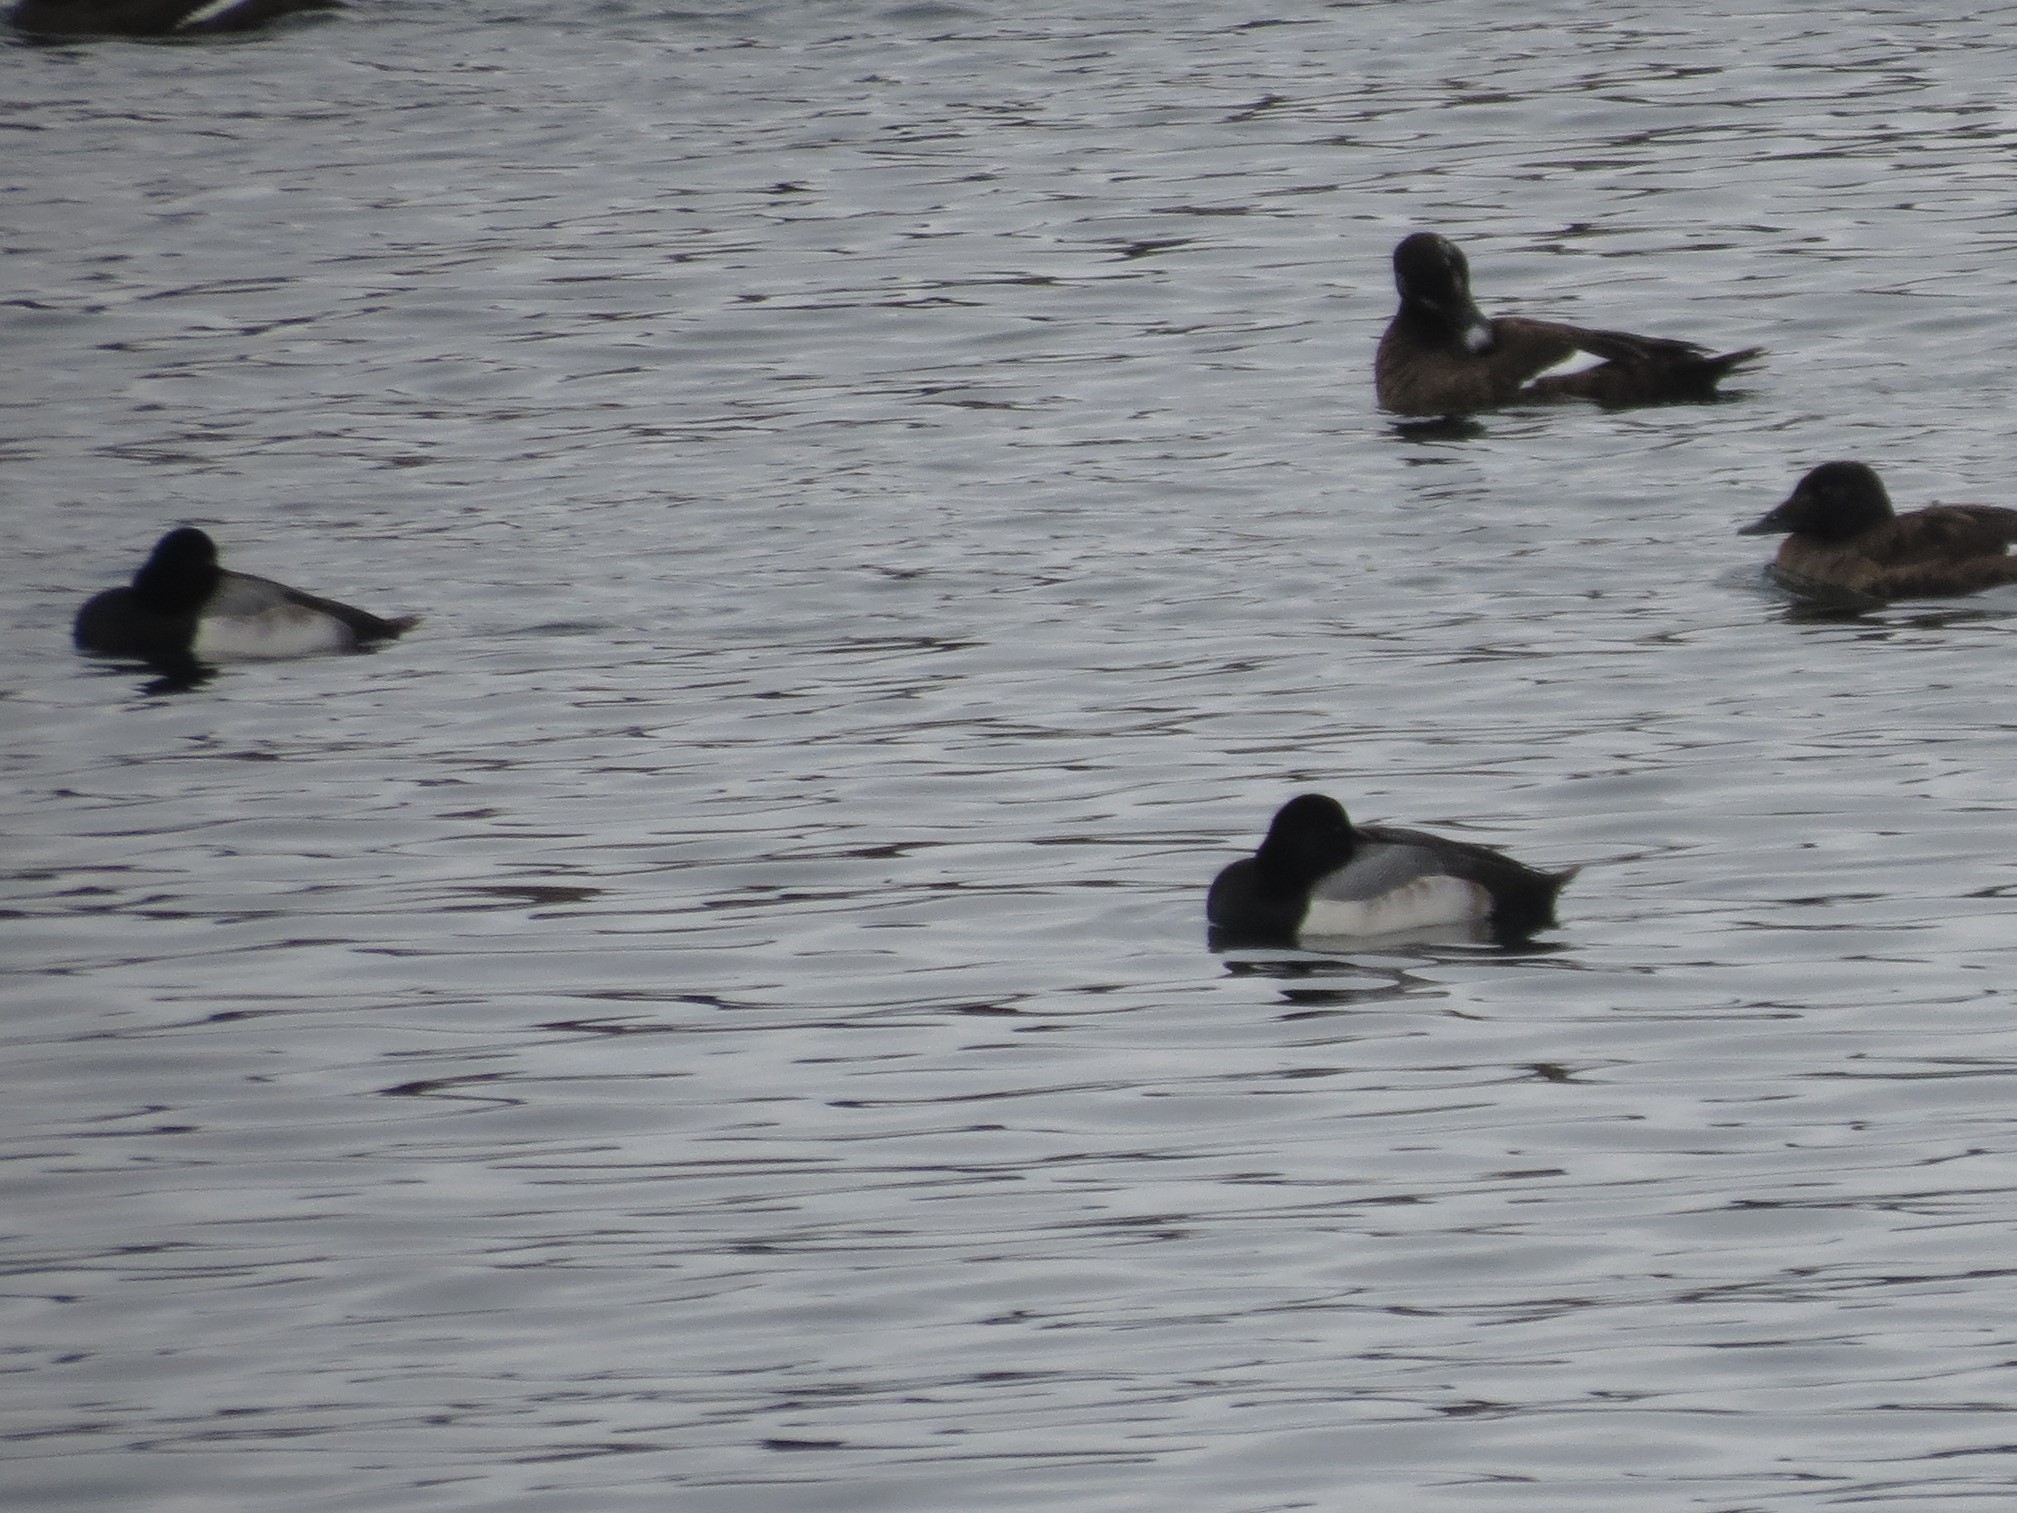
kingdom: Animalia
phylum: Chordata
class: Aves
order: Anseriformes
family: Anatidae
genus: Aythya
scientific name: Aythya marila
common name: Greater scaup
